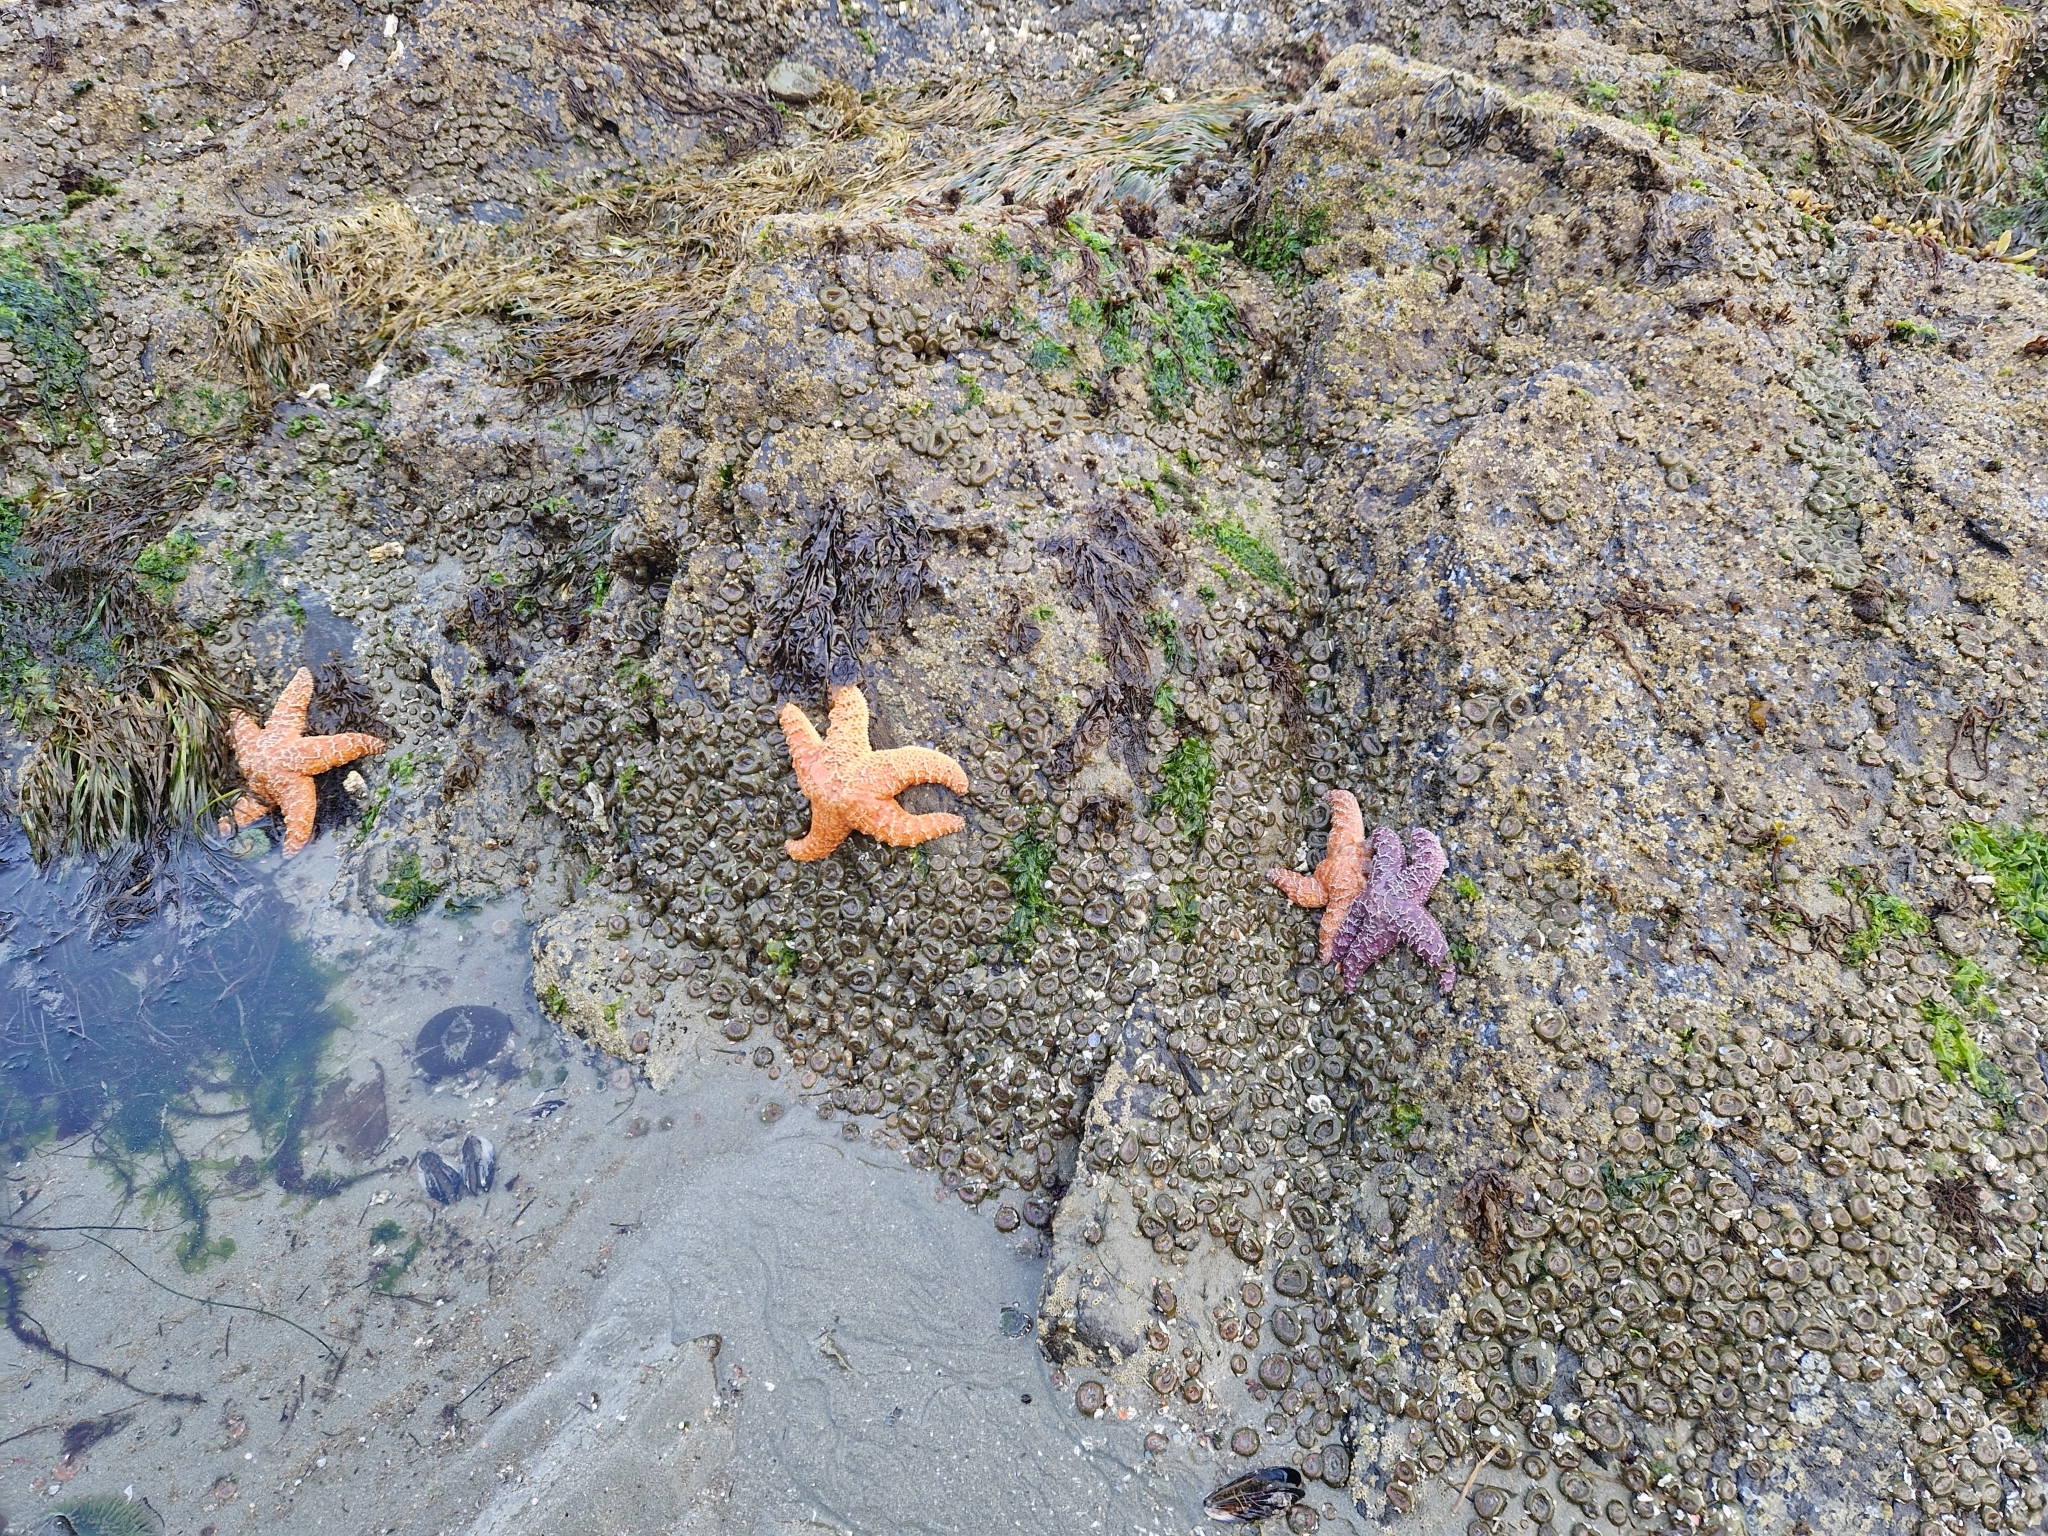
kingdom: Animalia
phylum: Echinodermata
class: Asteroidea
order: Forcipulatida
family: Asteriidae
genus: Pisaster
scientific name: Pisaster ochraceus
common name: Ochre stars
